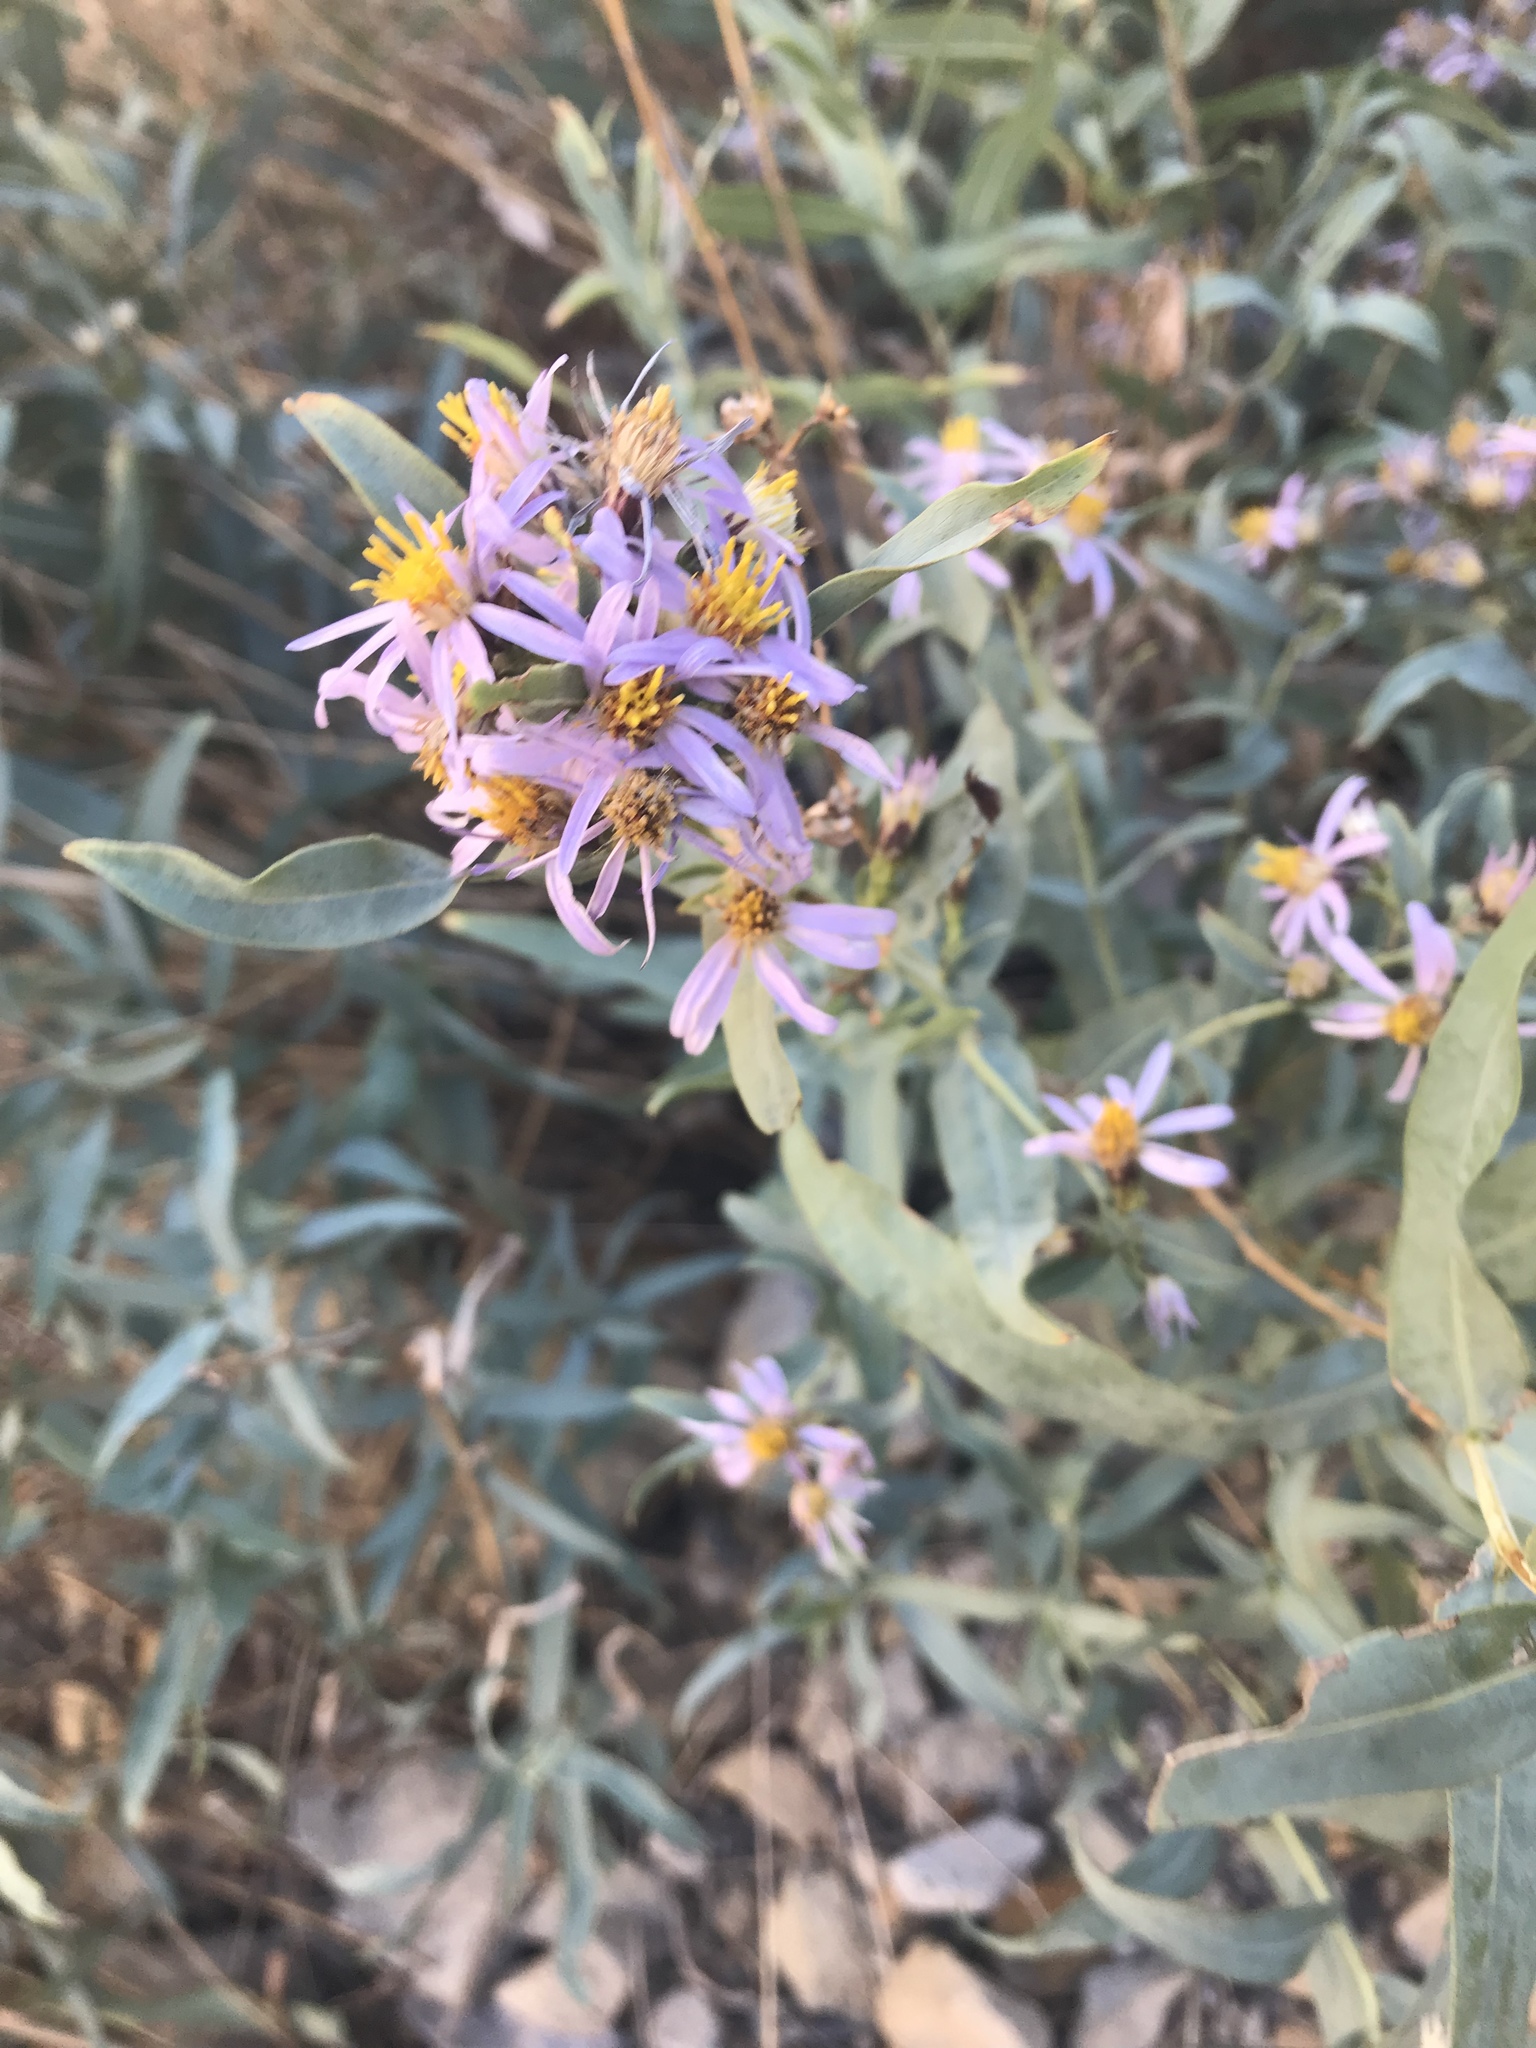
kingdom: Plantae
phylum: Tracheophyta
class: Magnoliopsida
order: Asterales
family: Asteraceae
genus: Eurybia
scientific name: Eurybia glauca
